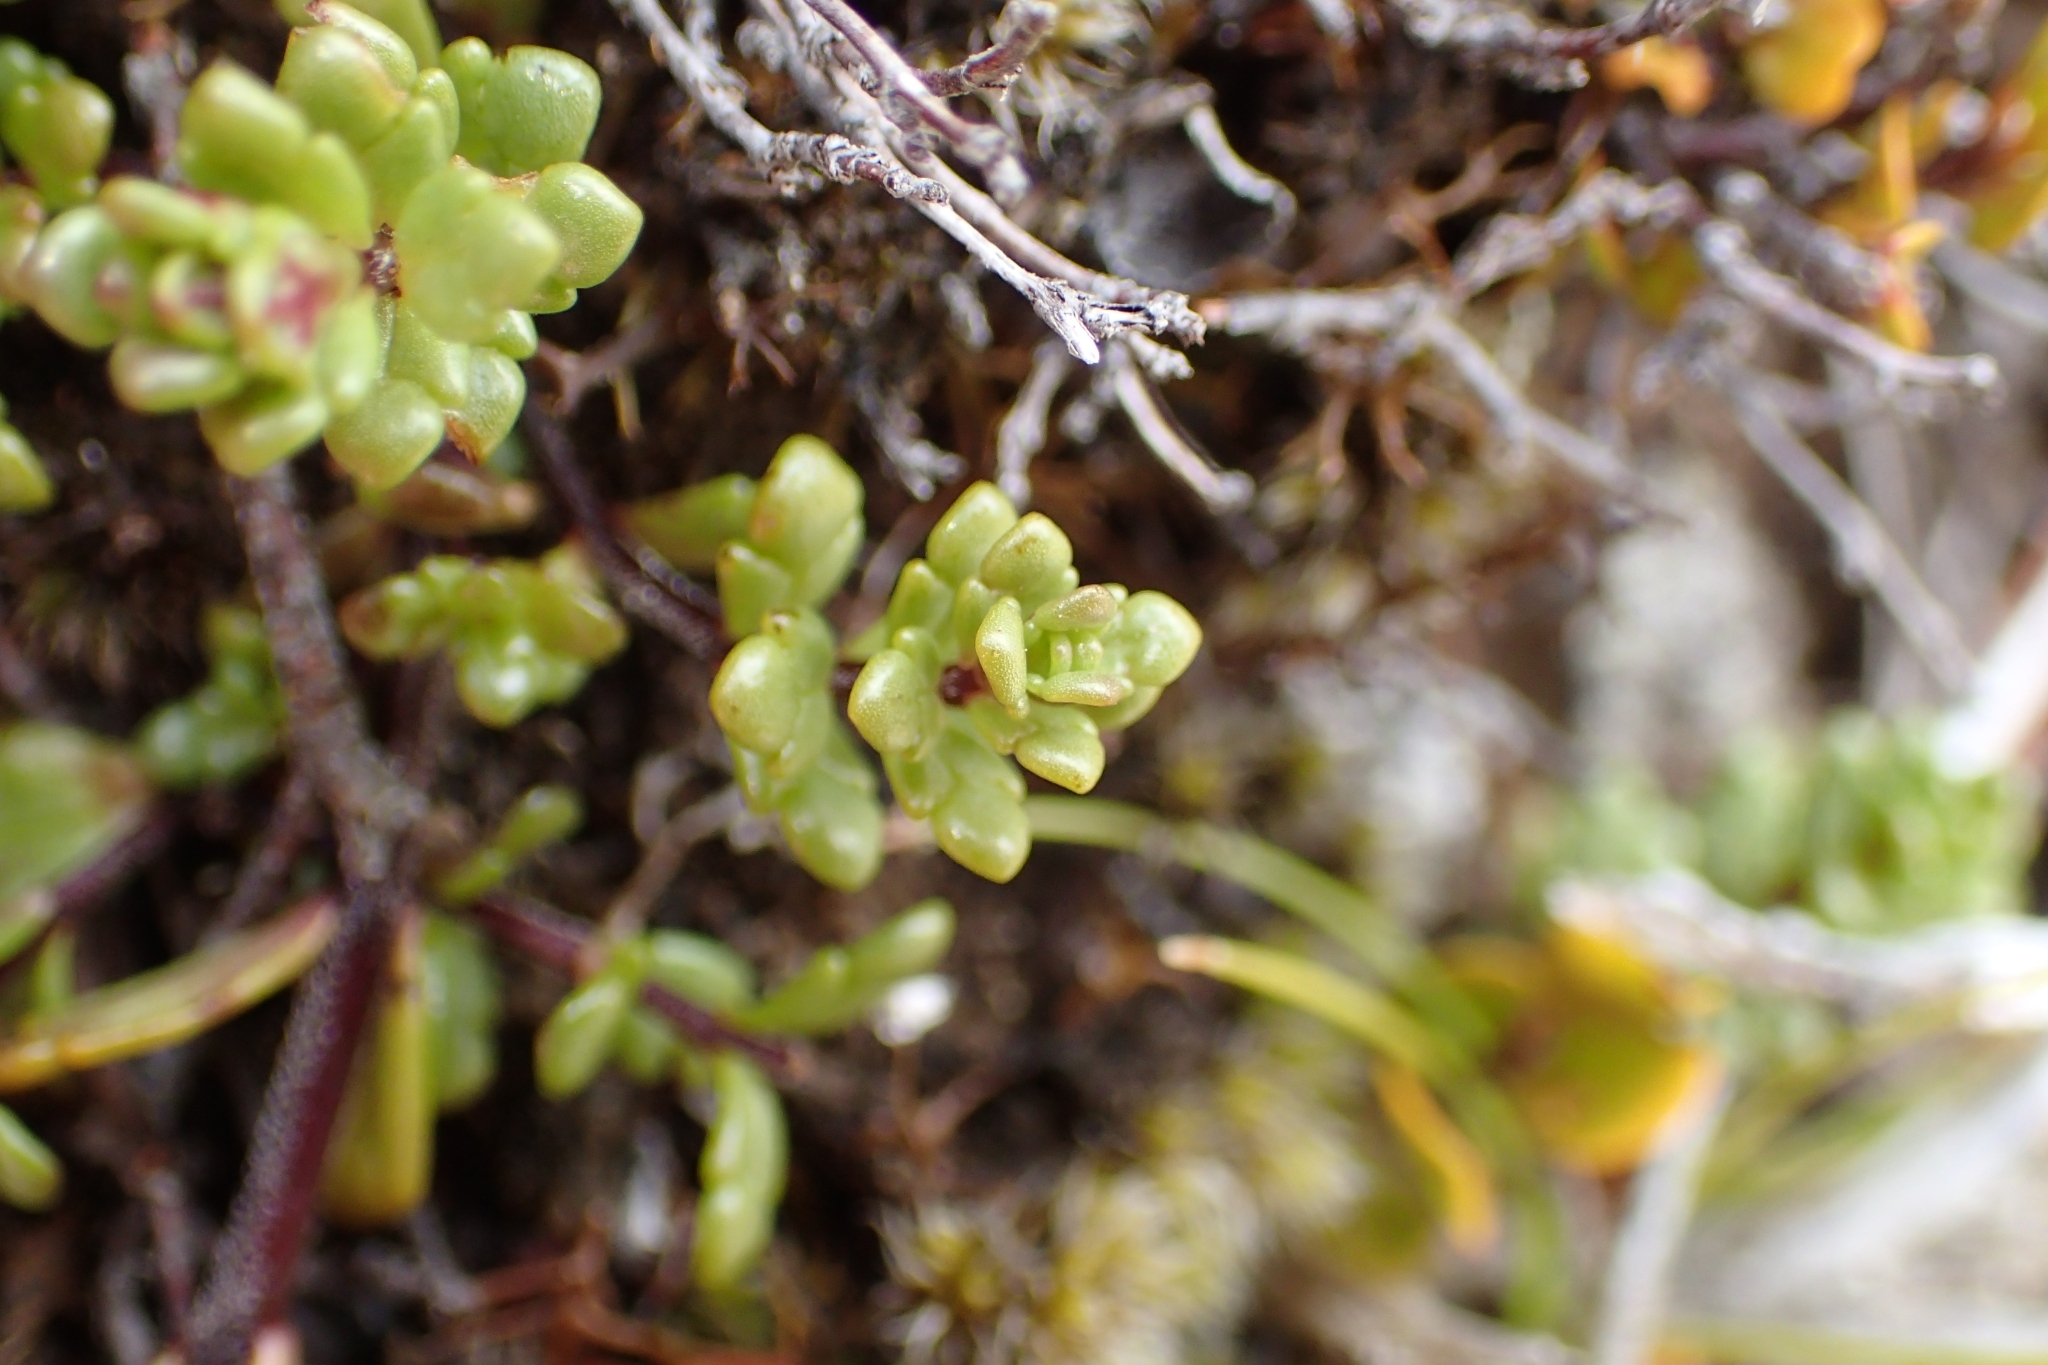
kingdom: Plantae
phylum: Tracheophyta
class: Magnoliopsida
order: Lamiales
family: Orobanchaceae
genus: Euphrasia
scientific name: Euphrasia laingii
